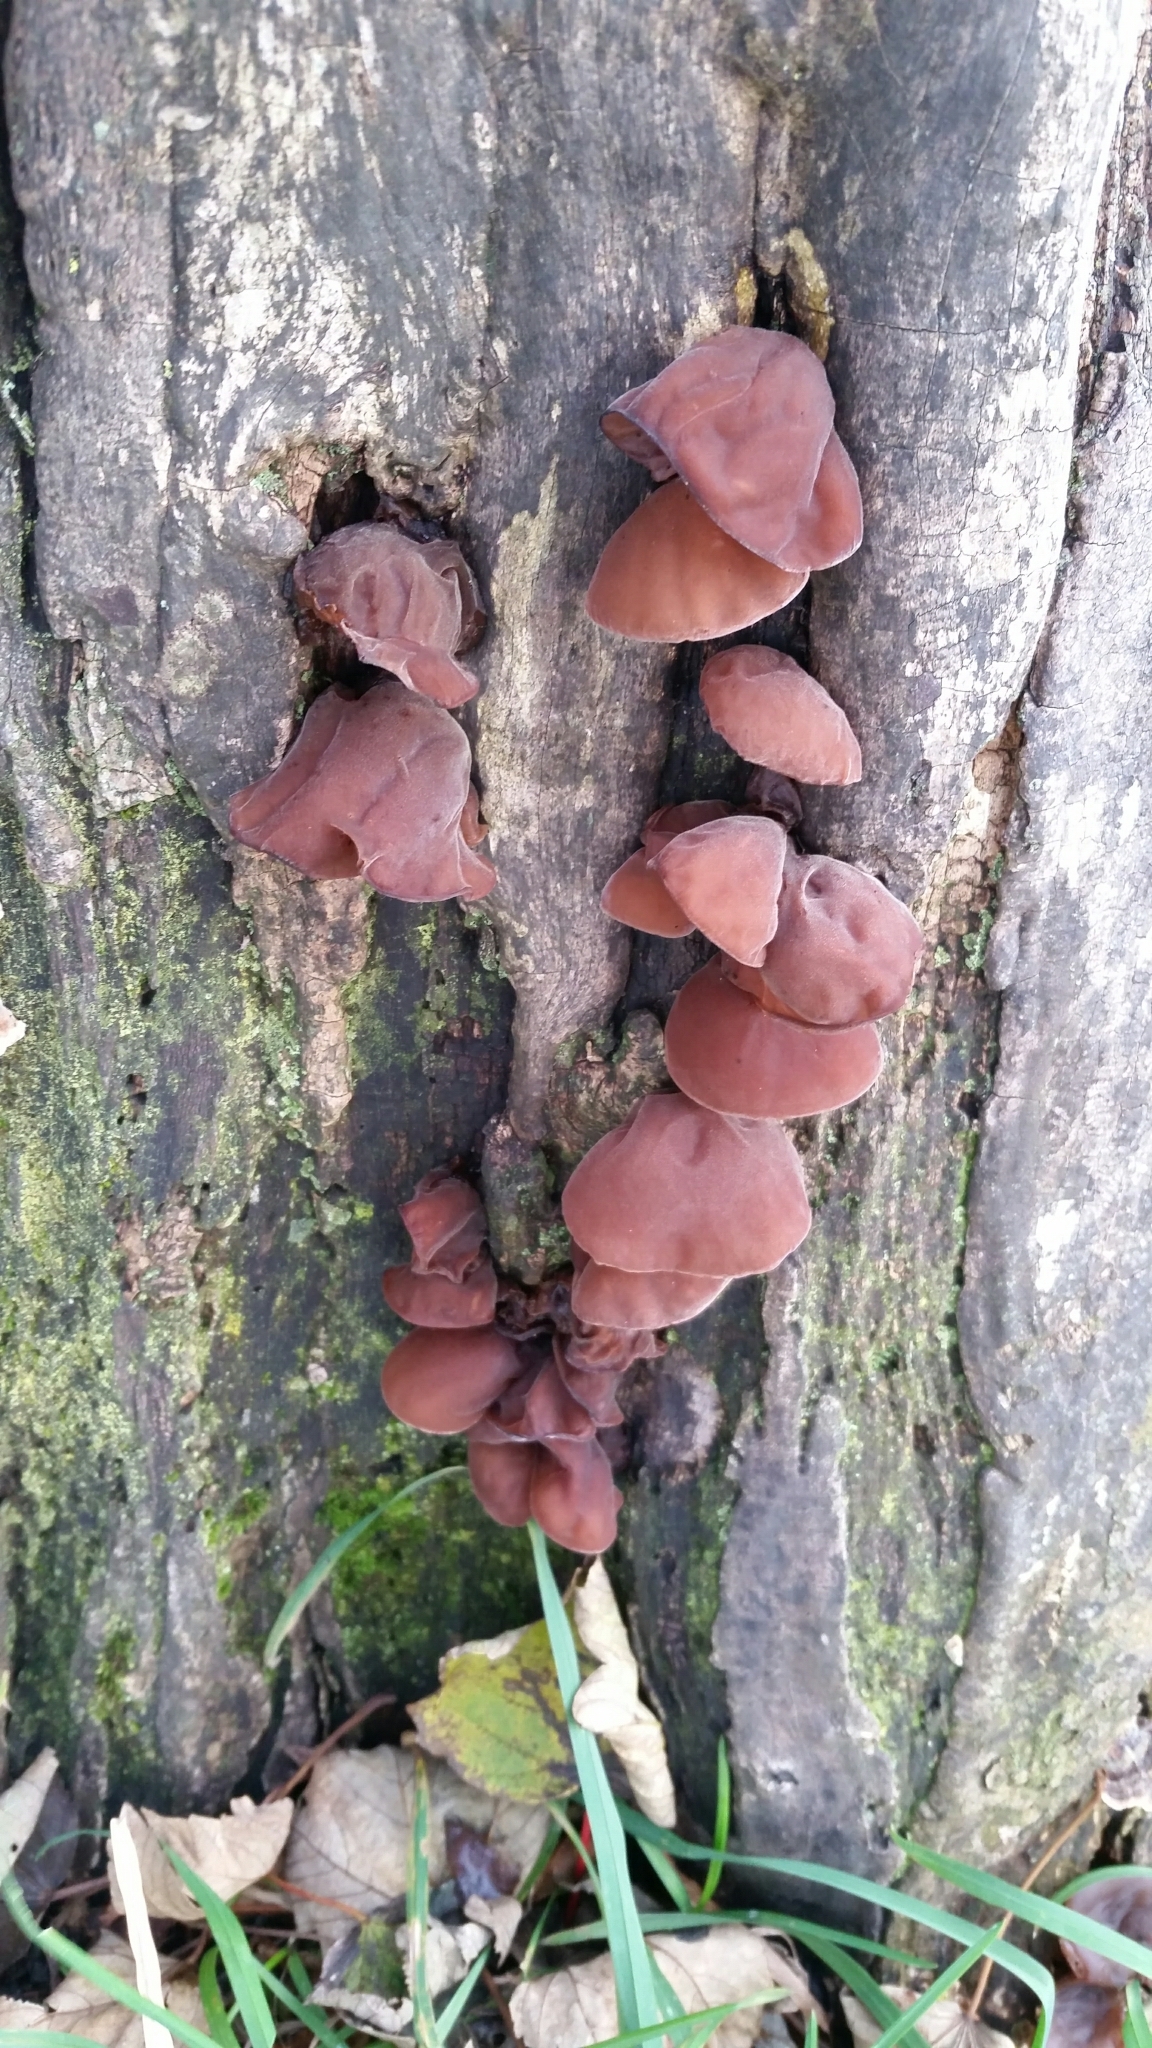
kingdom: Fungi
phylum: Basidiomycota
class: Agaricomycetes
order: Auriculariales
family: Auriculariaceae
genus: Auricularia
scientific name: Auricularia auricula-judae
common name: Jelly ear
